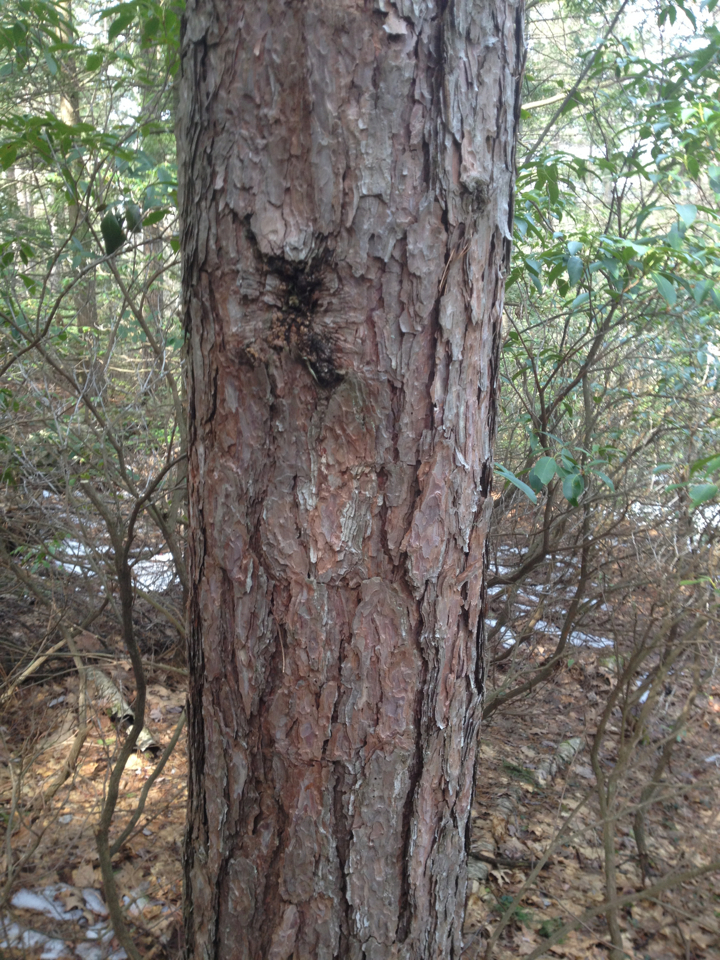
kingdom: Plantae
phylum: Tracheophyta
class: Pinopsida
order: Pinales
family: Pinaceae
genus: Pinus
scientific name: Pinus resinosa
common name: Norway pine
